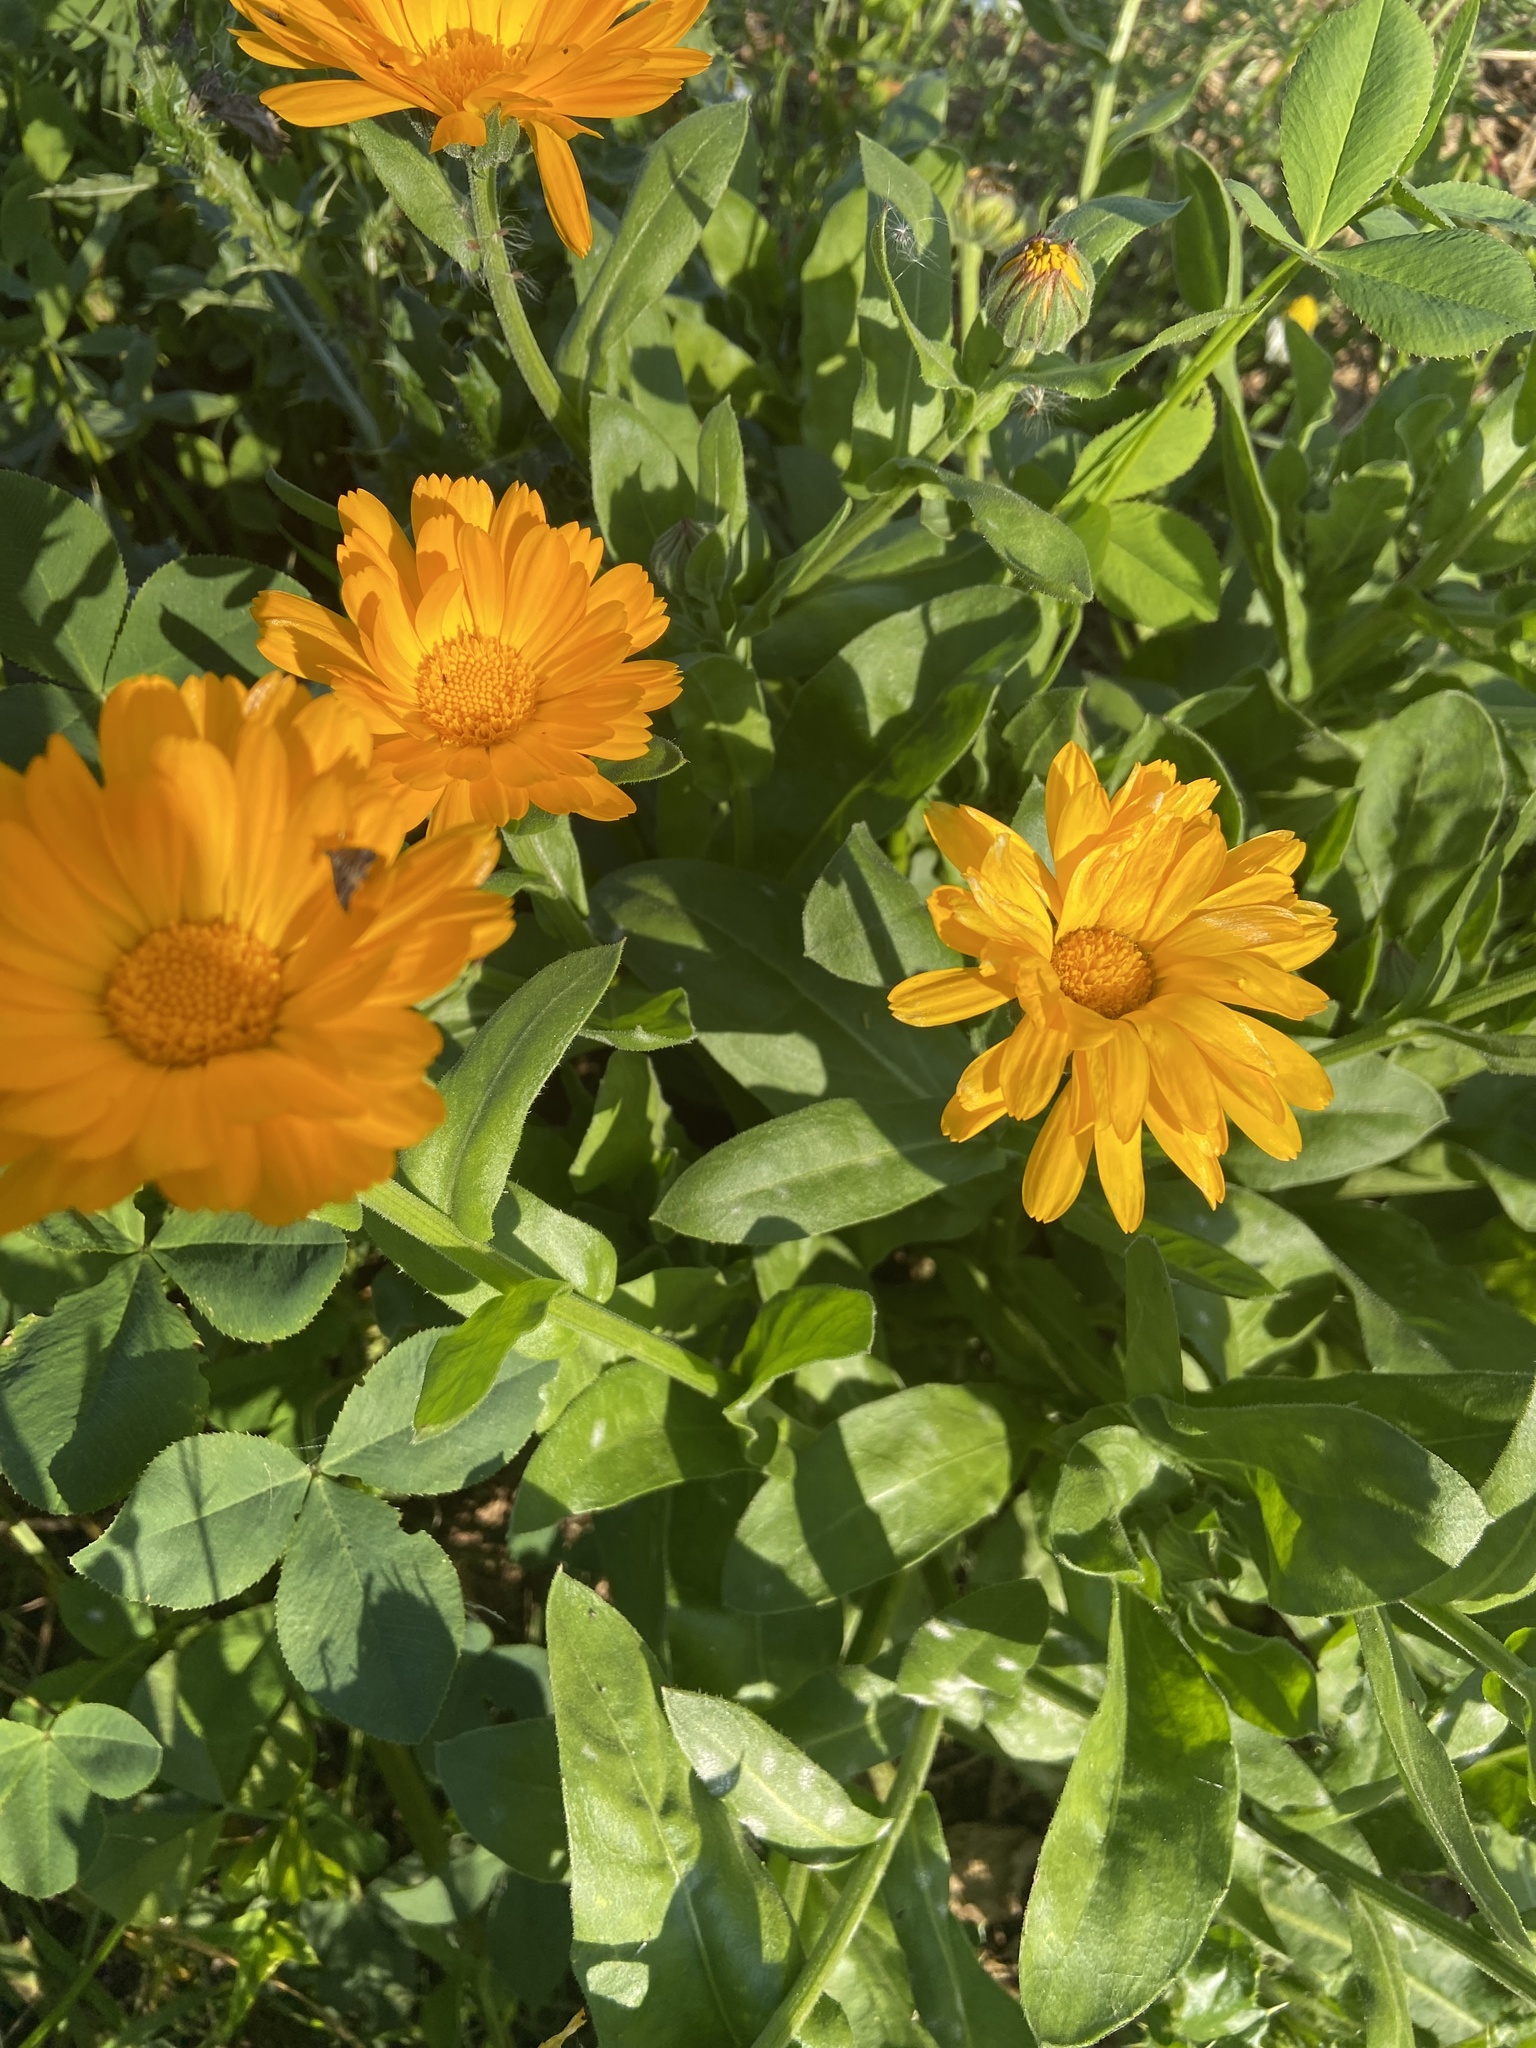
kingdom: Plantae
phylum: Tracheophyta
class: Magnoliopsida
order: Asterales
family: Asteraceae
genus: Calendula
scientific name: Calendula officinalis
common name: Pot marigold
